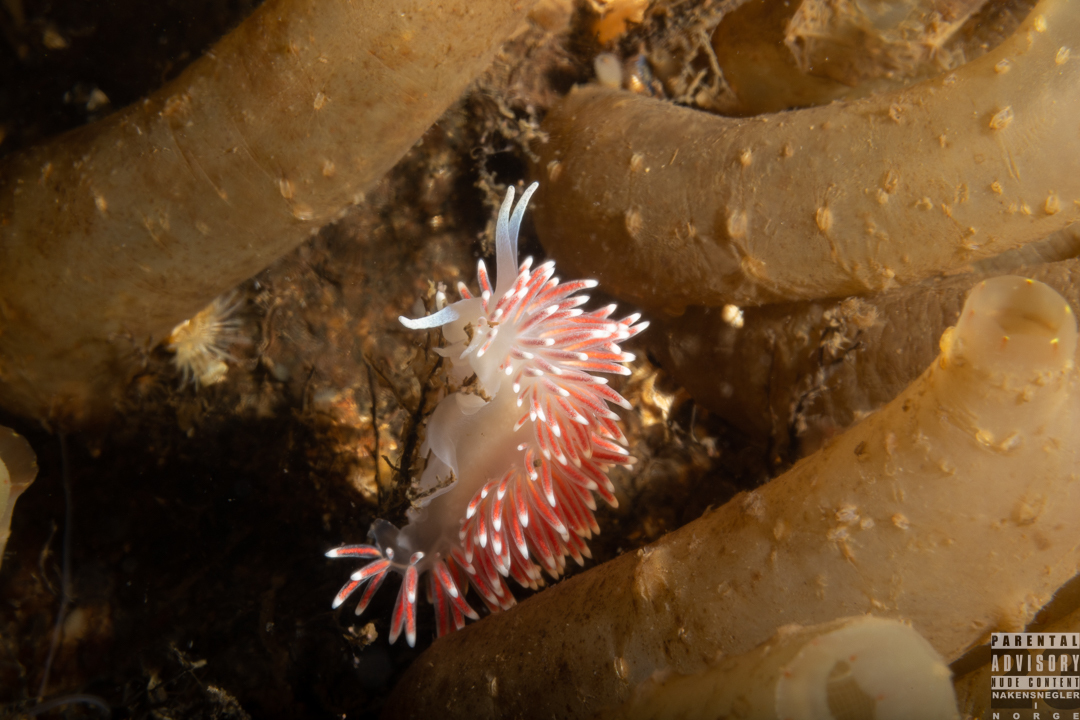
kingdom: Animalia
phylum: Mollusca
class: Gastropoda
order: Nudibranchia
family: Flabellinidae
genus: Carronella
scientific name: Carronella pellucida
